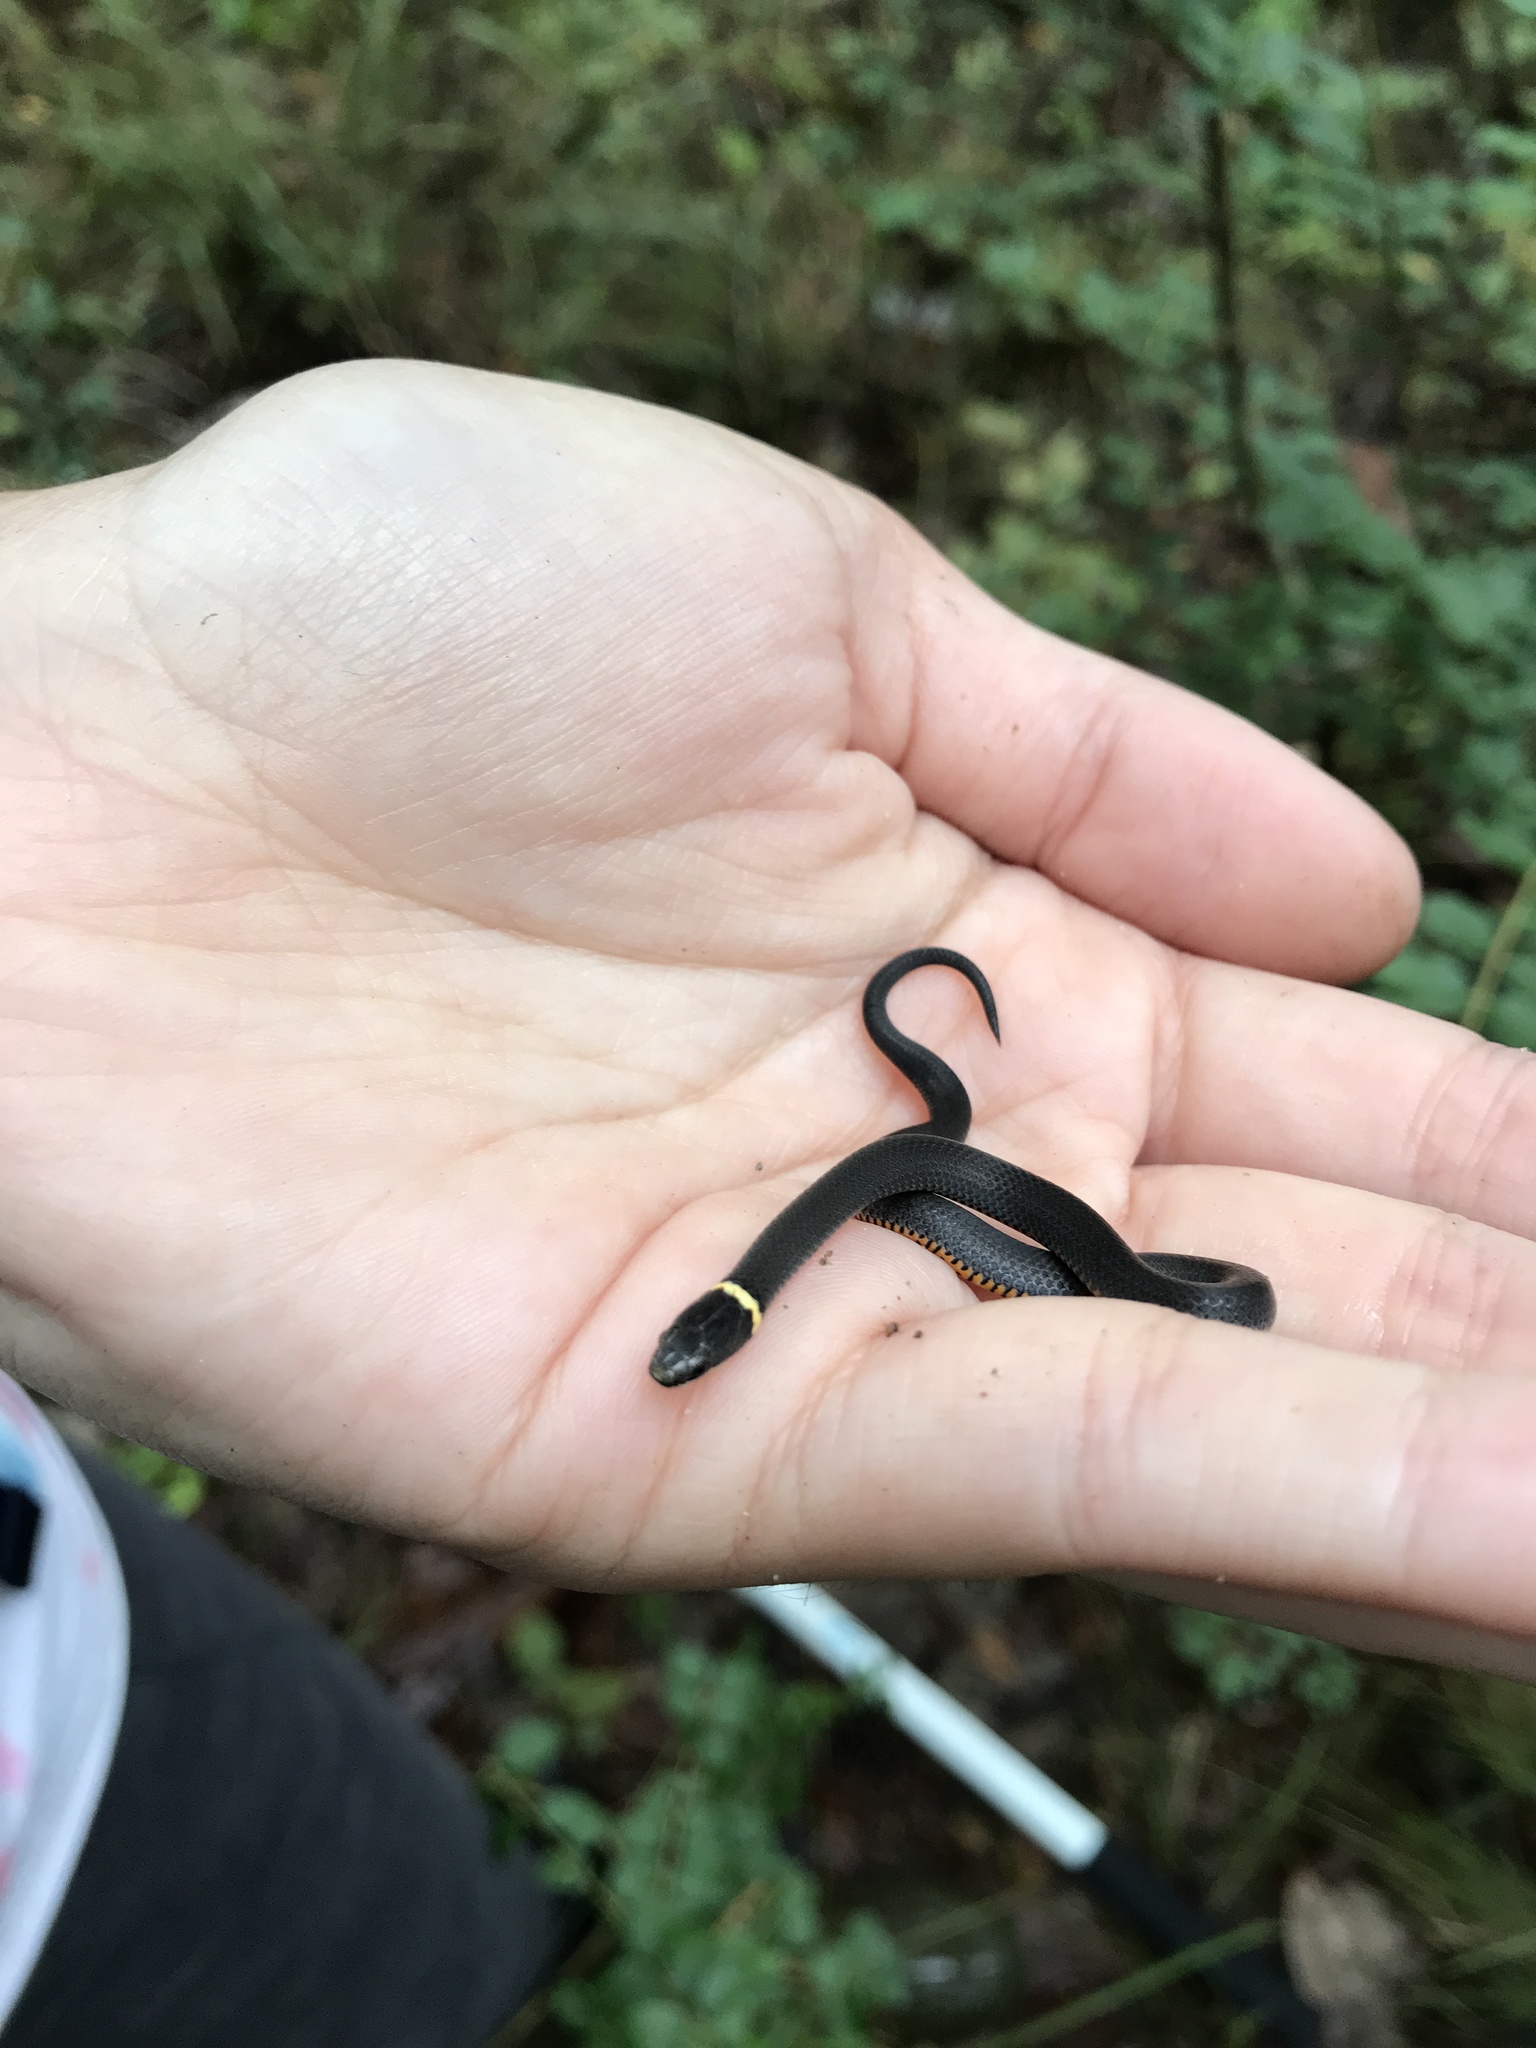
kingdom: Animalia
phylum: Chordata
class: Squamata
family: Colubridae
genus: Diadophis
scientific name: Diadophis punctatus
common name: Ringneck snake
